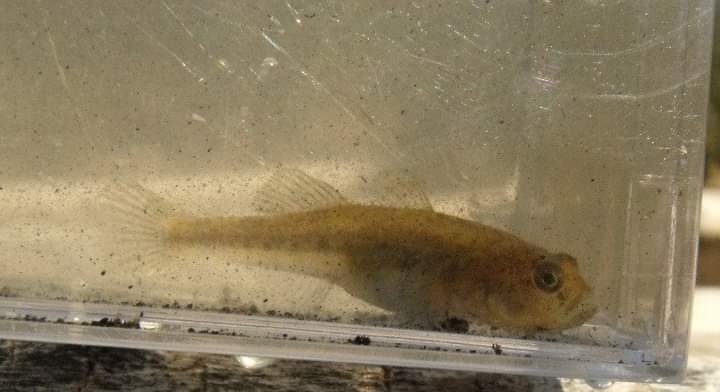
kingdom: Animalia
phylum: Chordata
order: Perciformes
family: Gobiidae
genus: Knipowitschia
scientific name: Knipowitschia panizzae
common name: Adriatic dwarf goby
